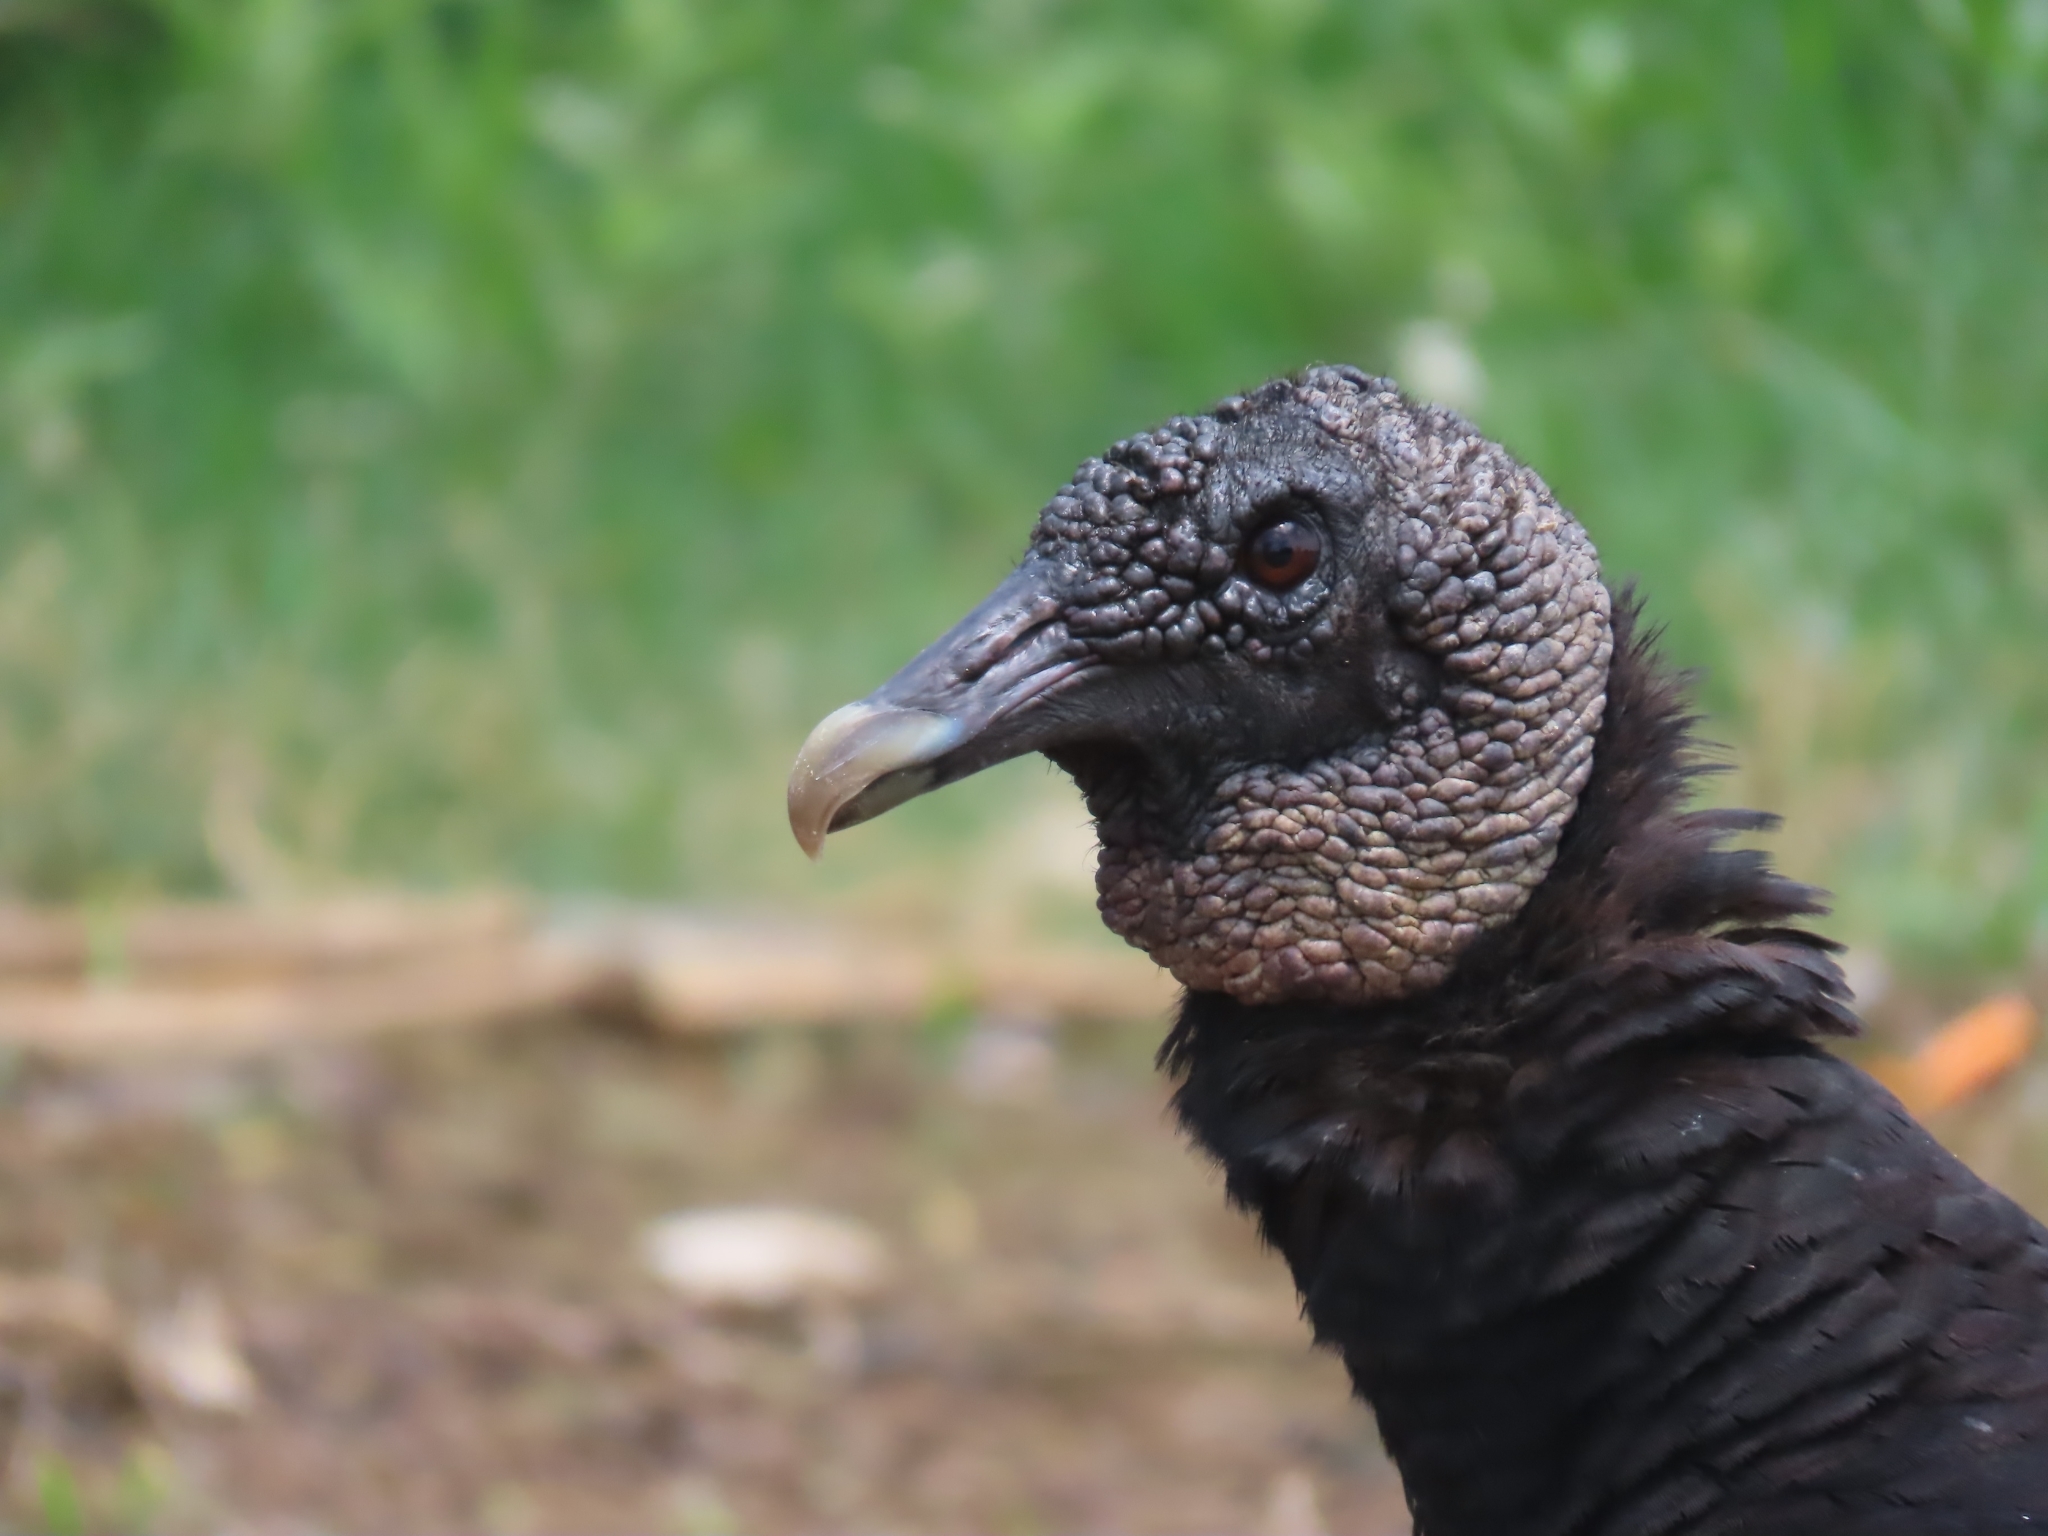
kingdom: Animalia
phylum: Chordata
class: Aves
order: Accipitriformes
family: Cathartidae
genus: Coragyps
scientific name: Coragyps atratus
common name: Black vulture
